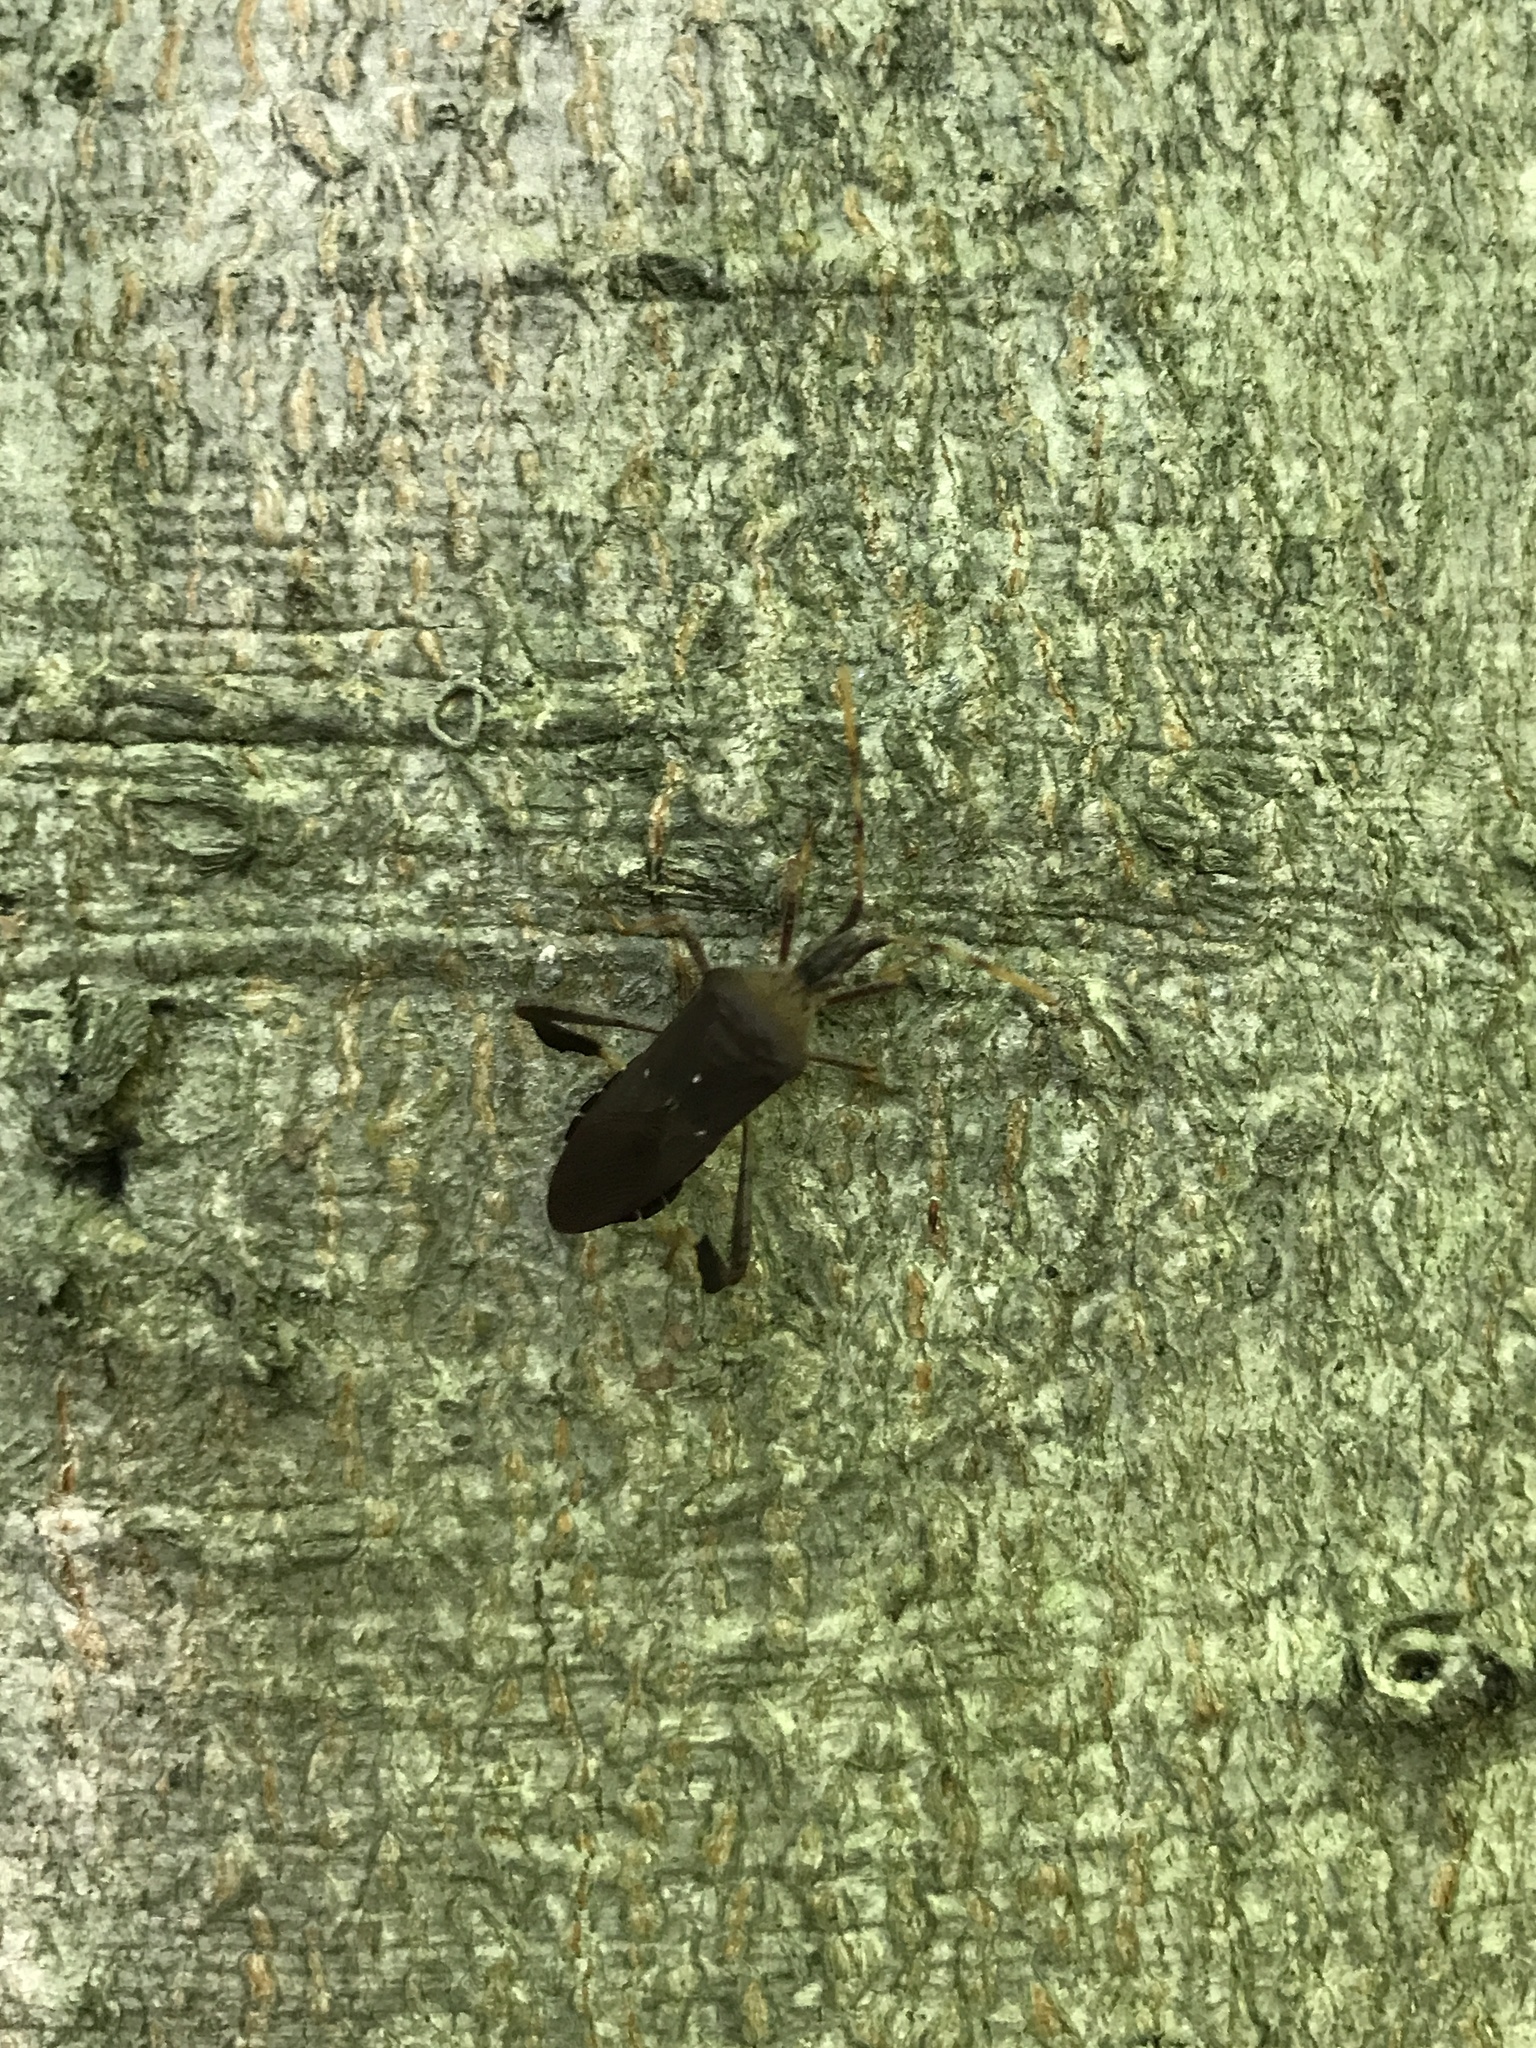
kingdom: Animalia
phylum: Arthropoda
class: Insecta
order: Hemiptera
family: Coreidae
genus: Leptoglossus
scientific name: Leptoglossus oppositus
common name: Northern leaf-footed bug
